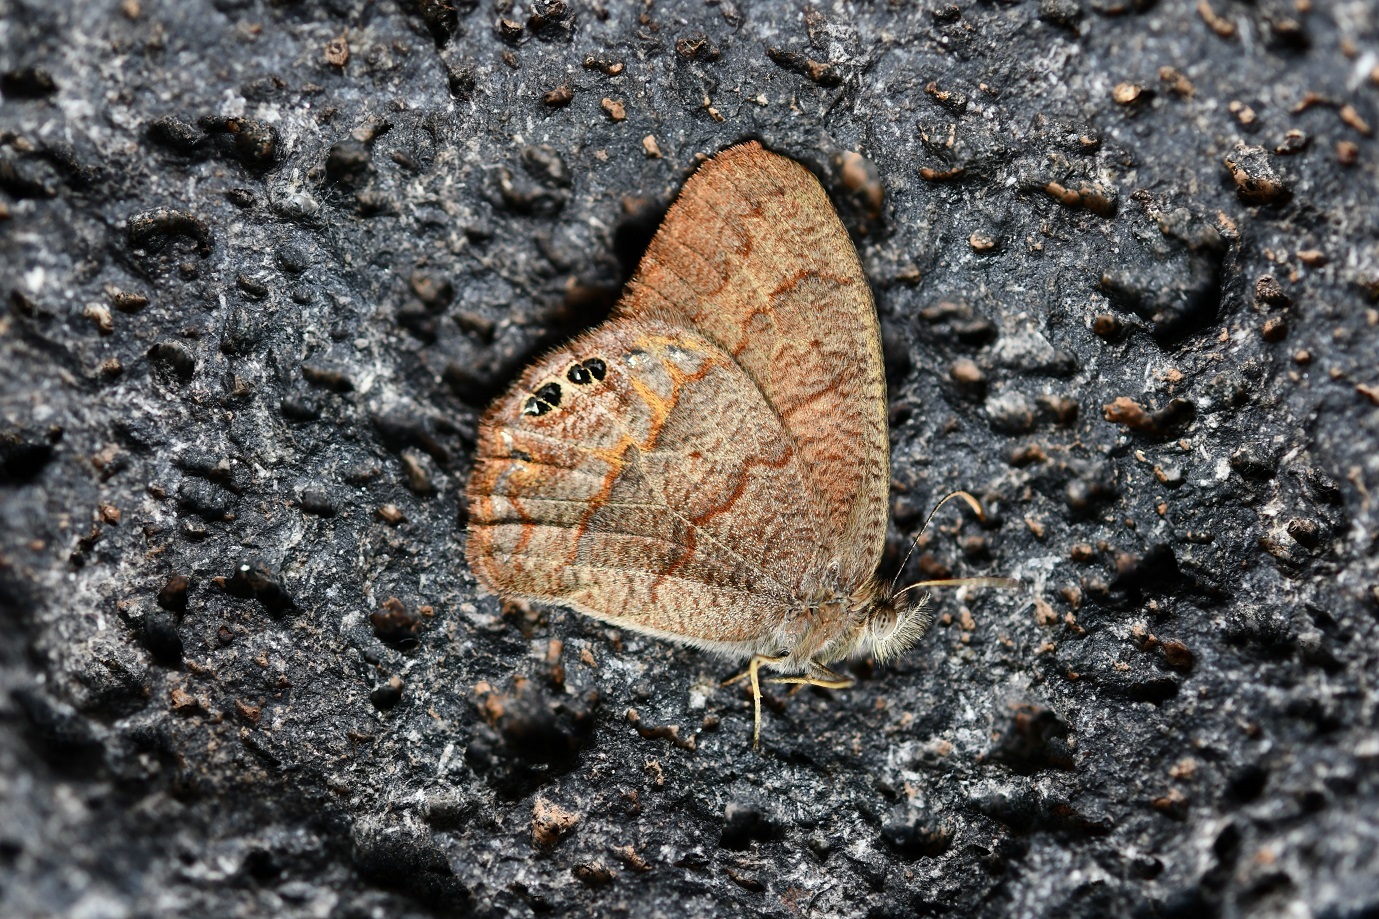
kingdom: Animalia
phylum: Arthropoda
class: Insecta
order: Lepidoptera
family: Nymphalidae
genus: Euptychia
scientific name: Euptychia
